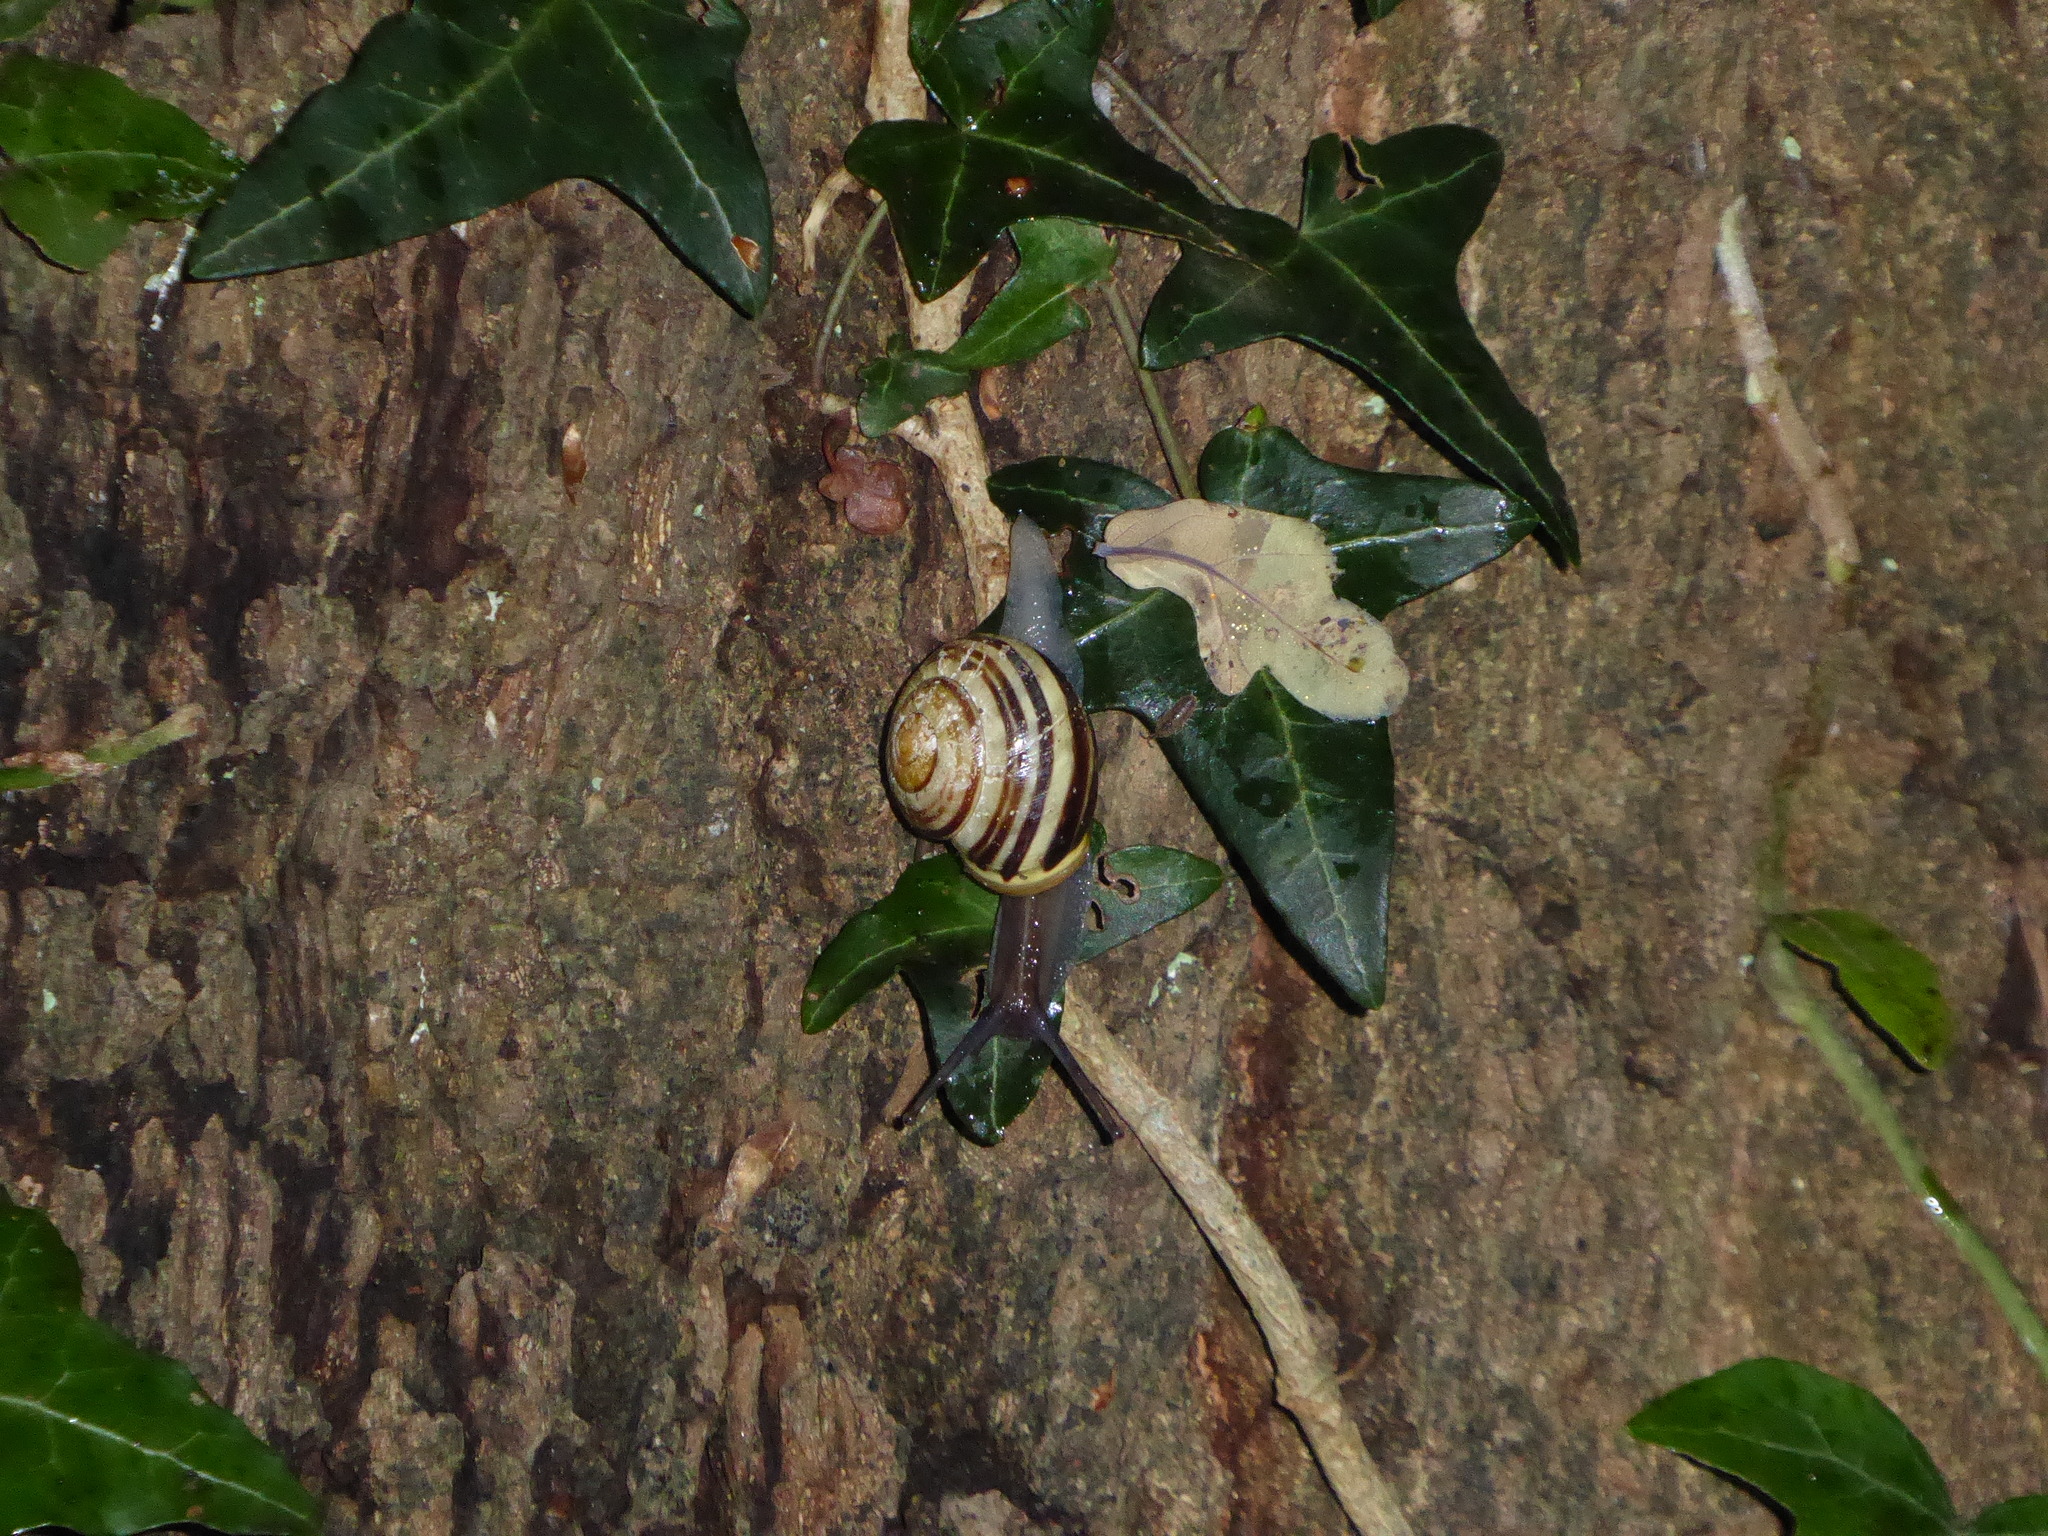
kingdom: Animalia
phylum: Mollusca
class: Gastropoda
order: Stylommatophora
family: Helicidae
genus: Cepaea
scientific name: Cepaea hortensis
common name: White-lip gardensnail
